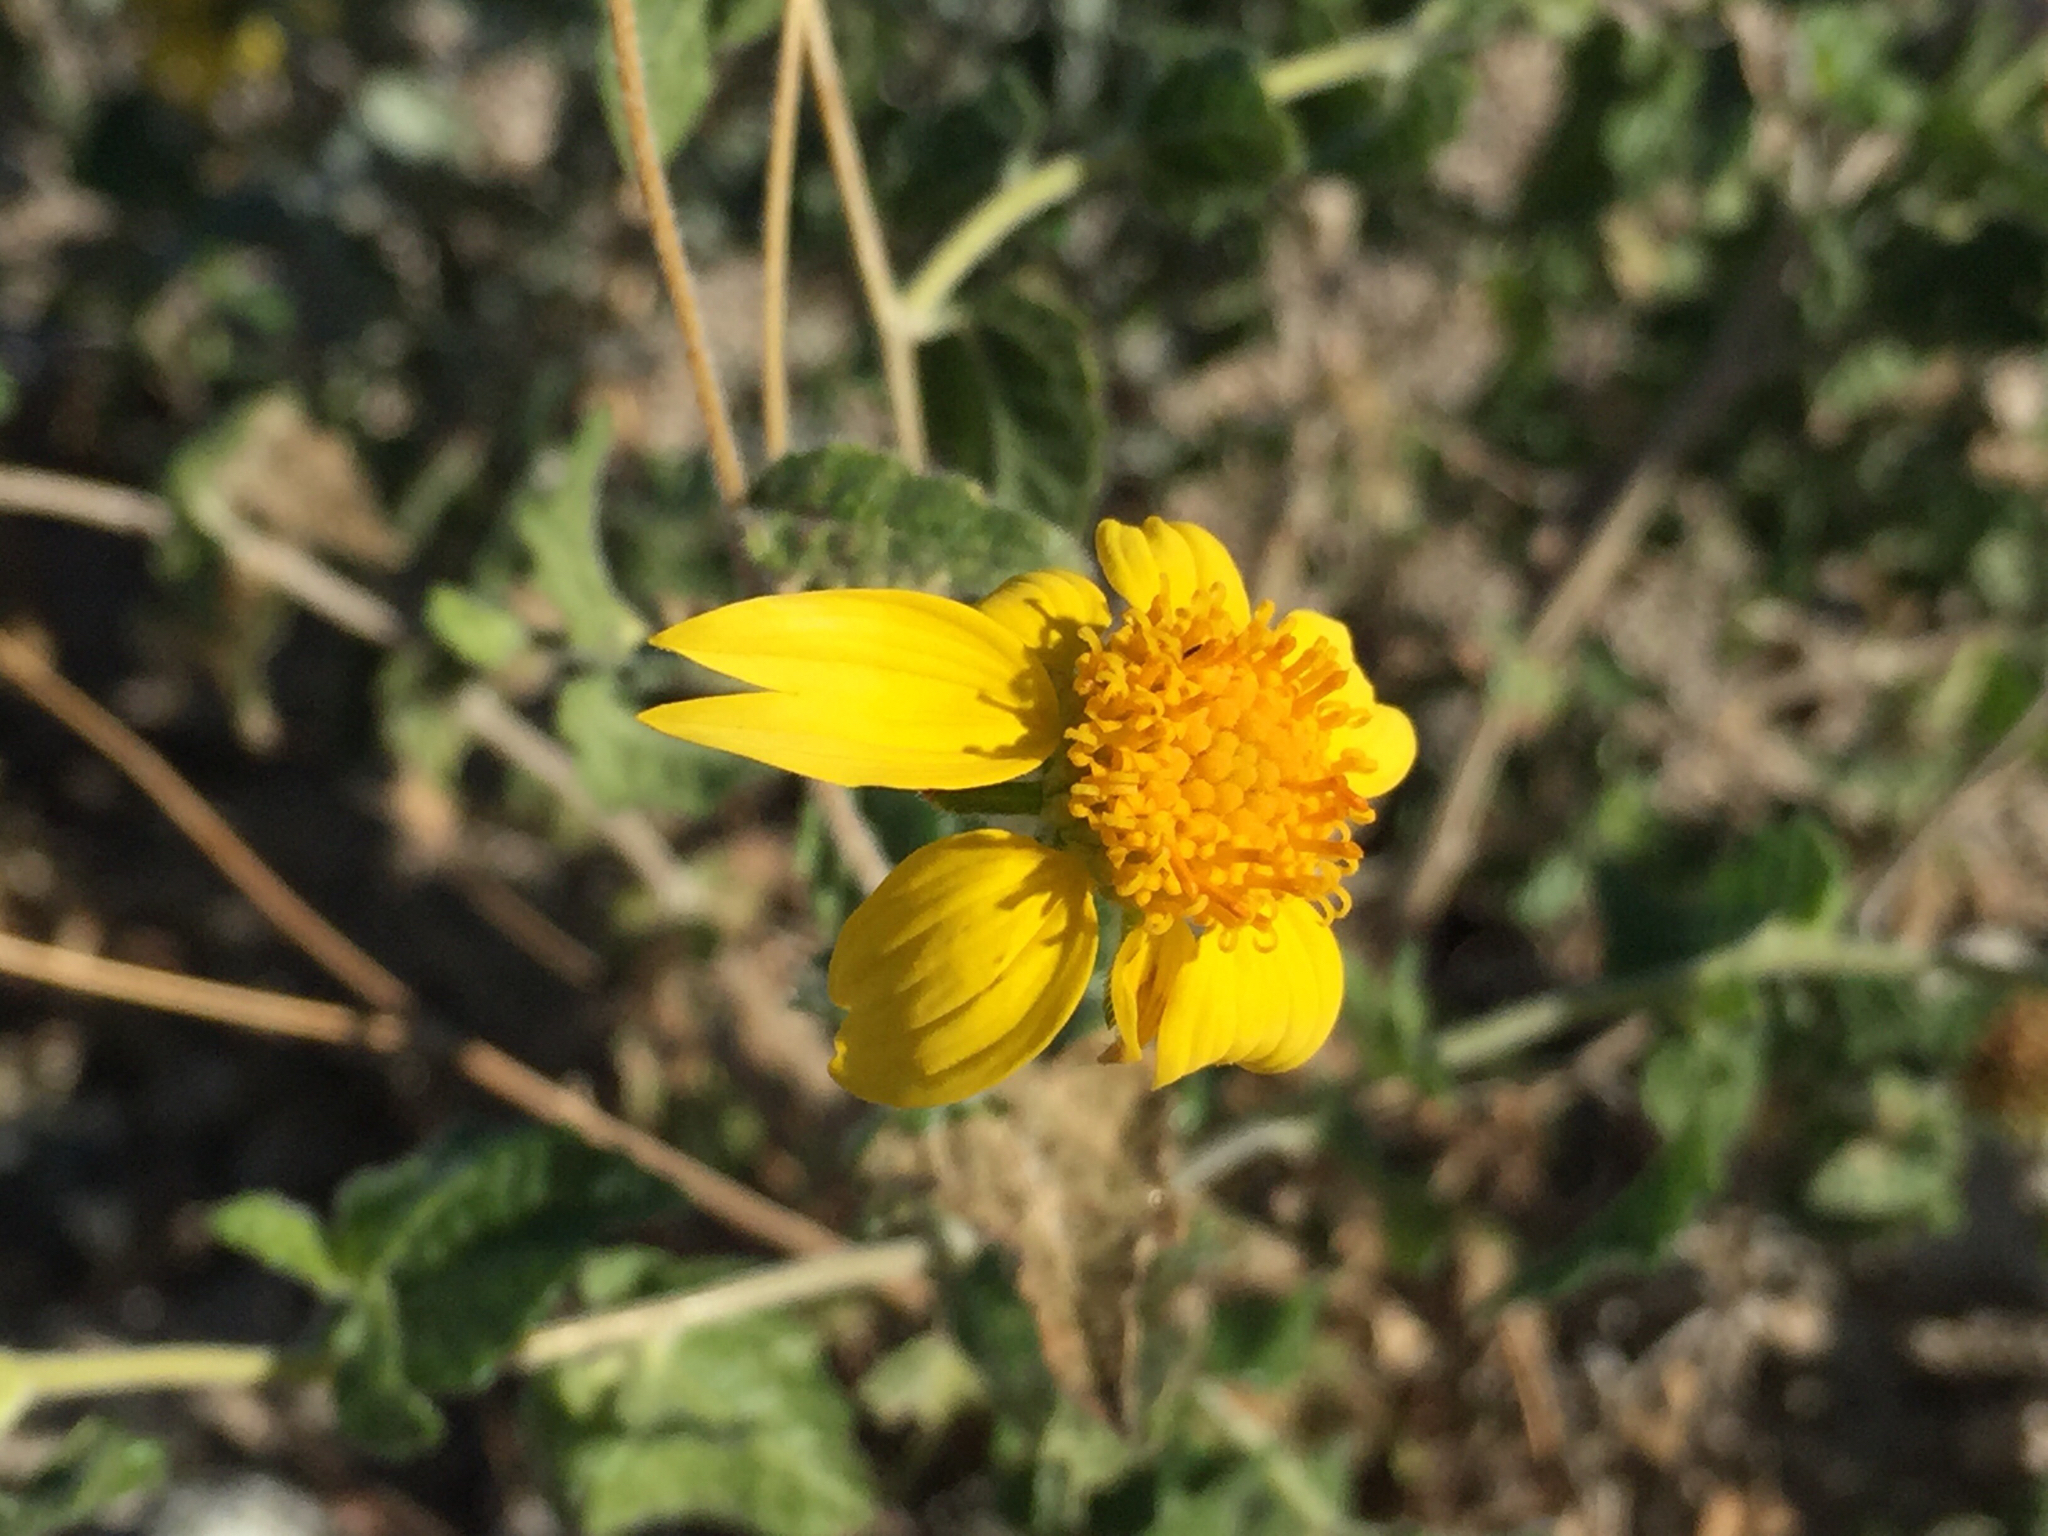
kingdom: Plantae
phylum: Tracheophyta
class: Magnoliopsida
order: Asterales
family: Asteraceae
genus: Bahiopsis
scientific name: Bahiopsis parishii
